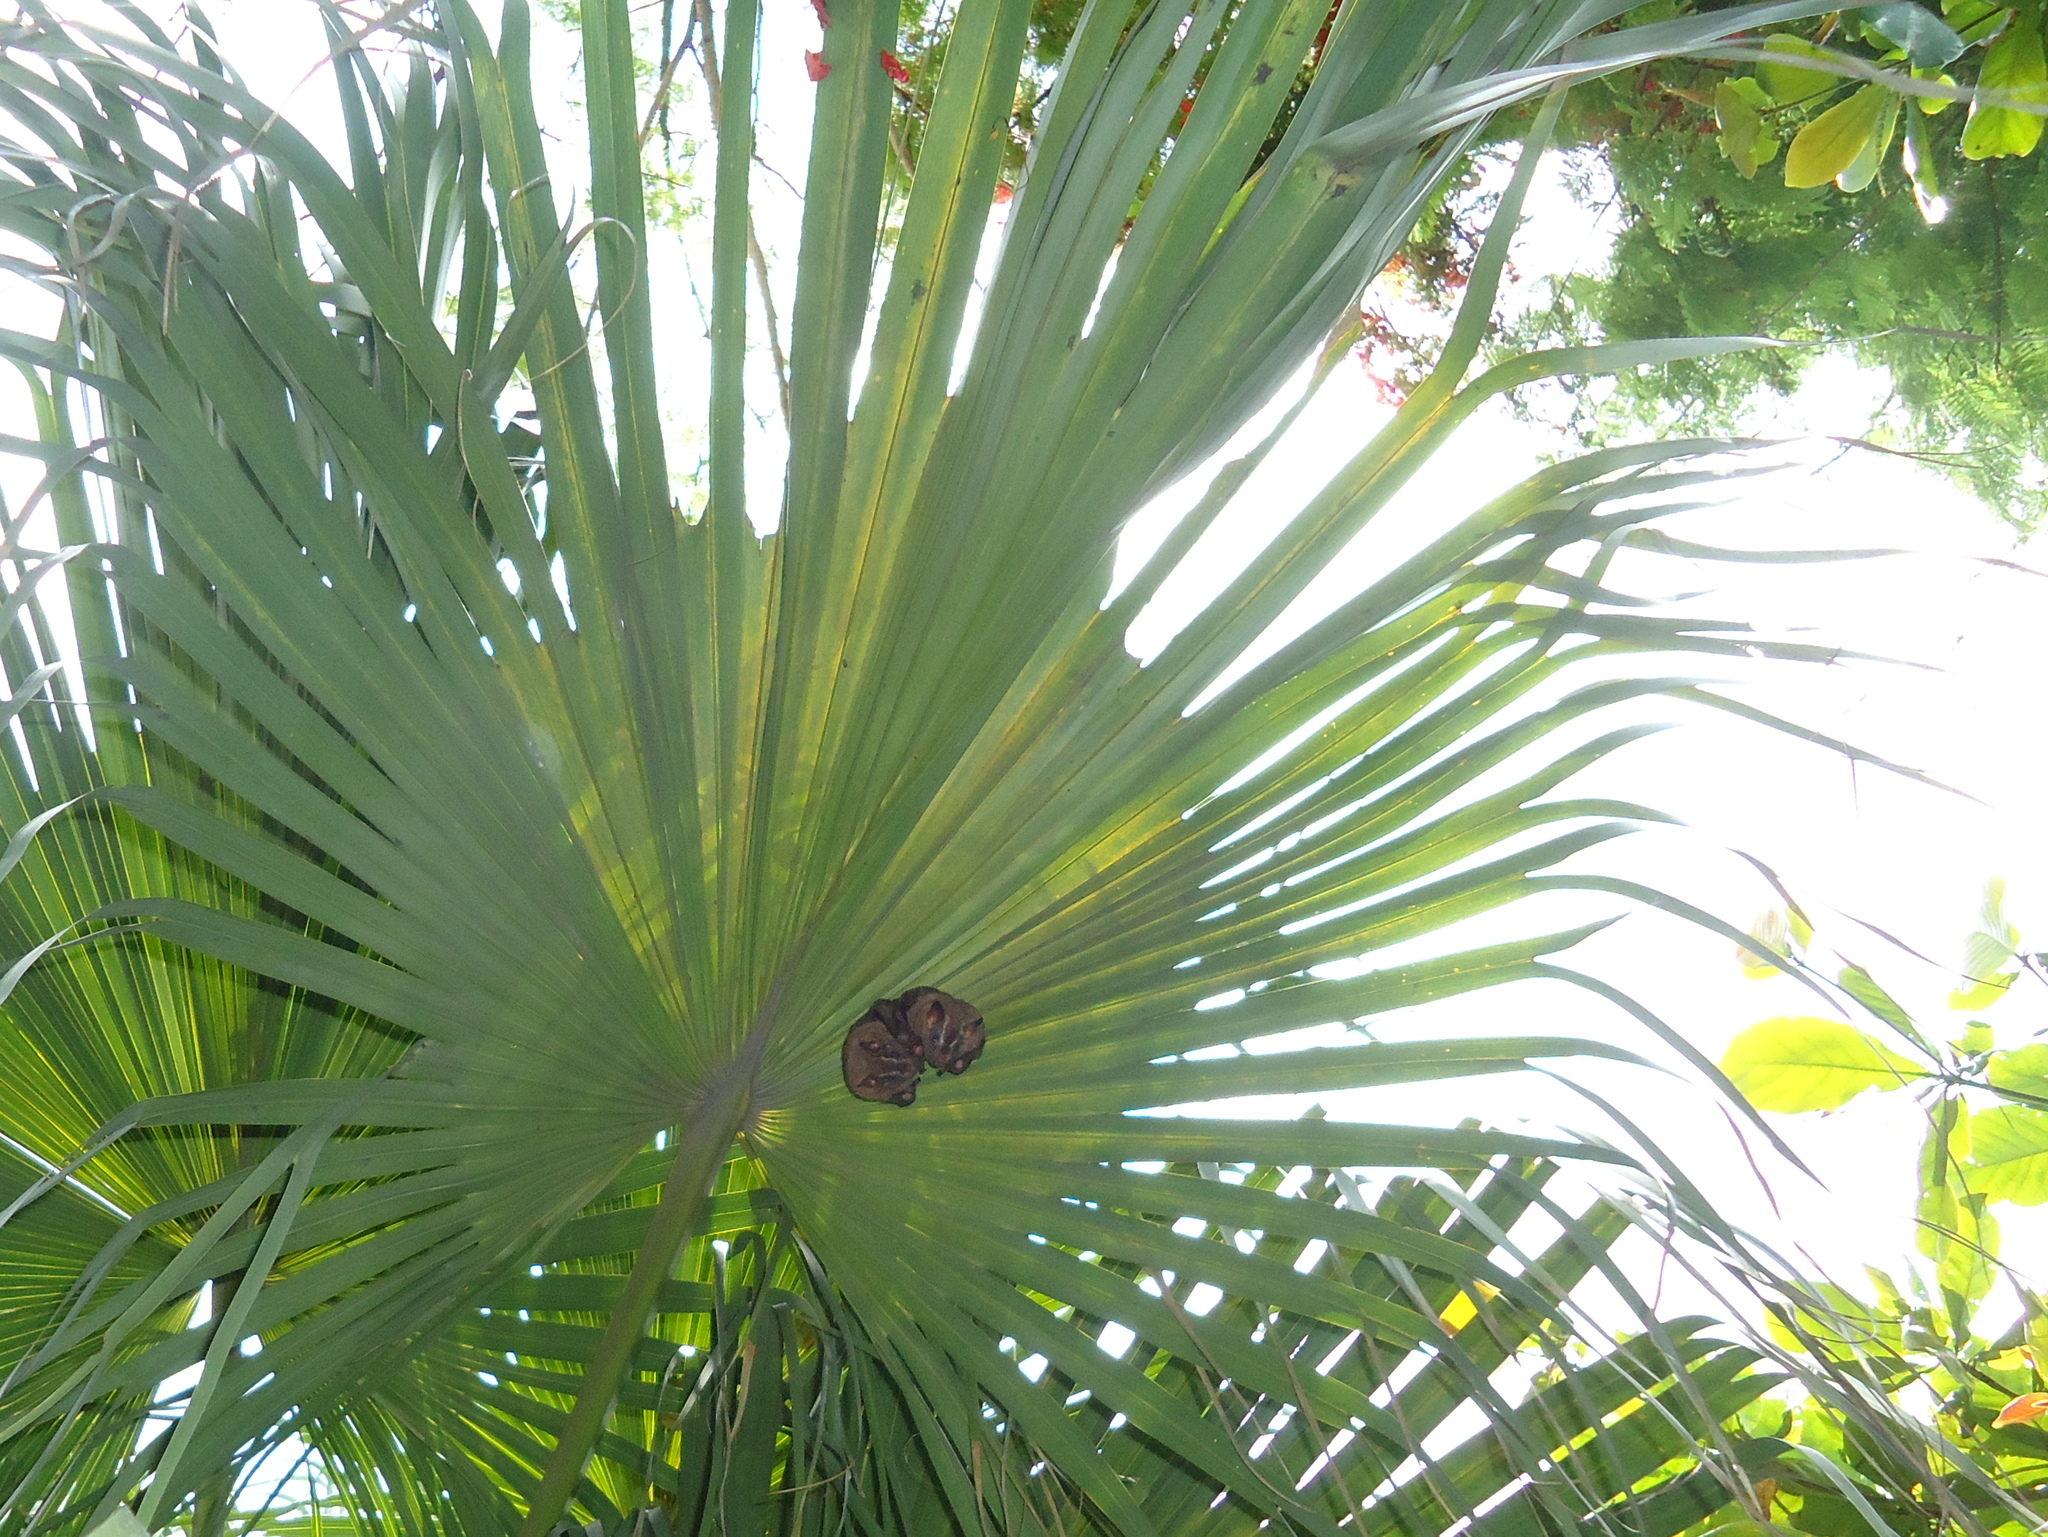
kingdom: Animalia
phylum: Chordata
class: Mammalia
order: Chiroptera
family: Phyllostomidae
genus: Artibeus
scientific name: Artibeus lituratus
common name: Great fruit-eating bat
